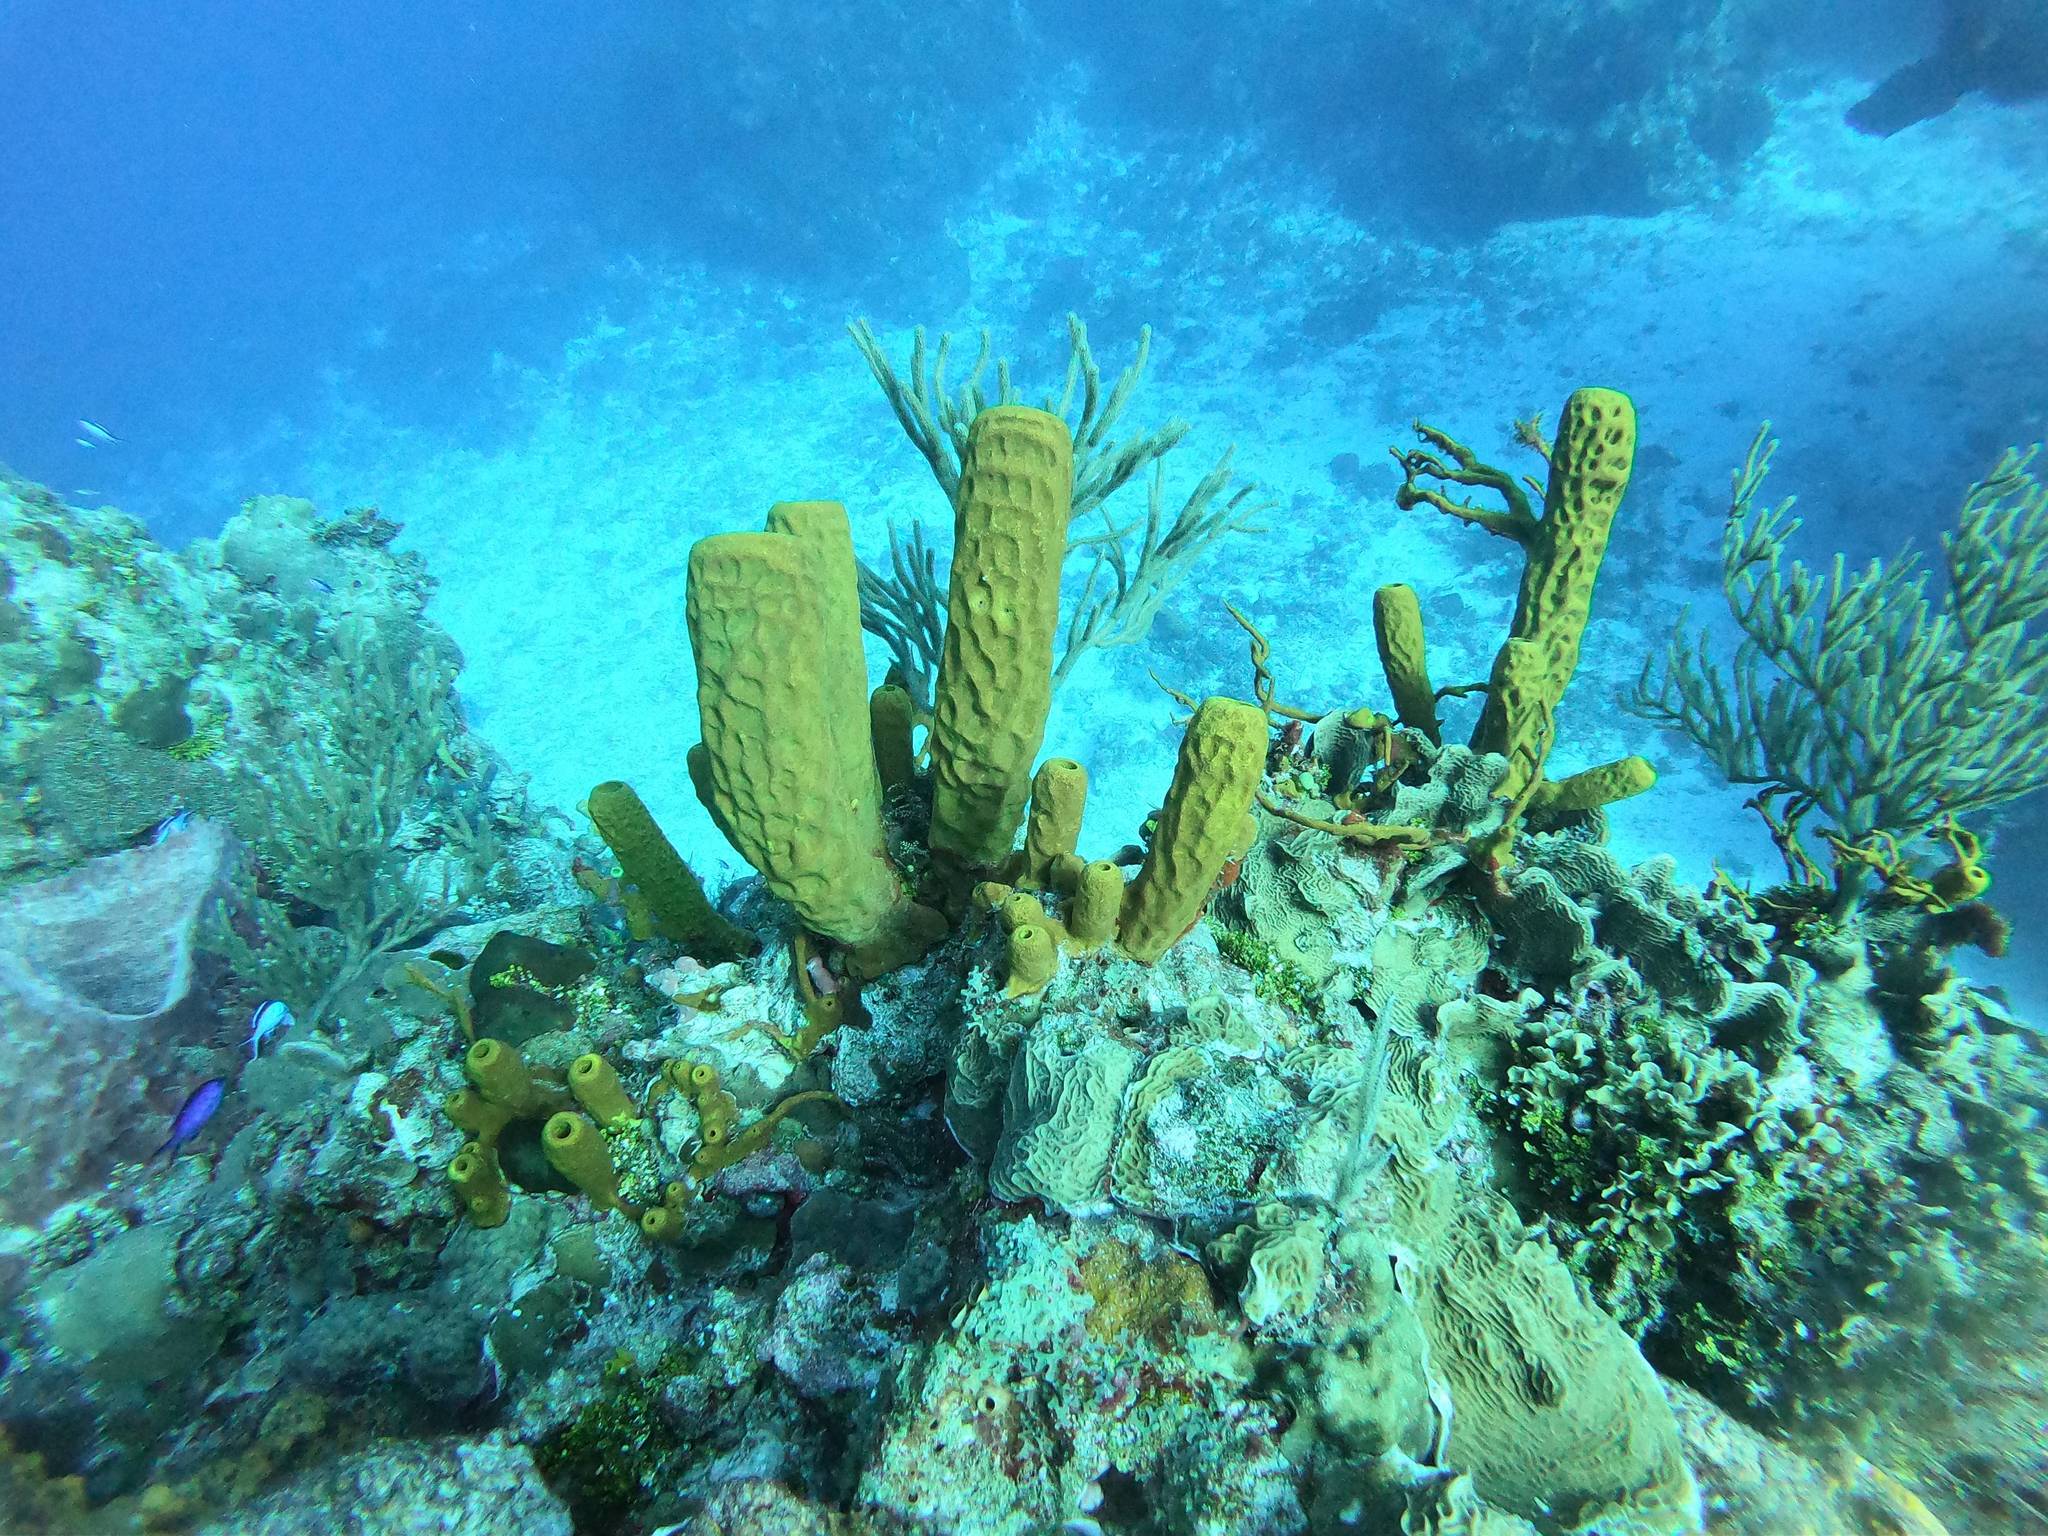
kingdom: Animalia
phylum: Porifera
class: Demospongiae
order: Verongiida
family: Aplysinidae
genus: Aplysina
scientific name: Aplysina fistularis
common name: Candle sponge
